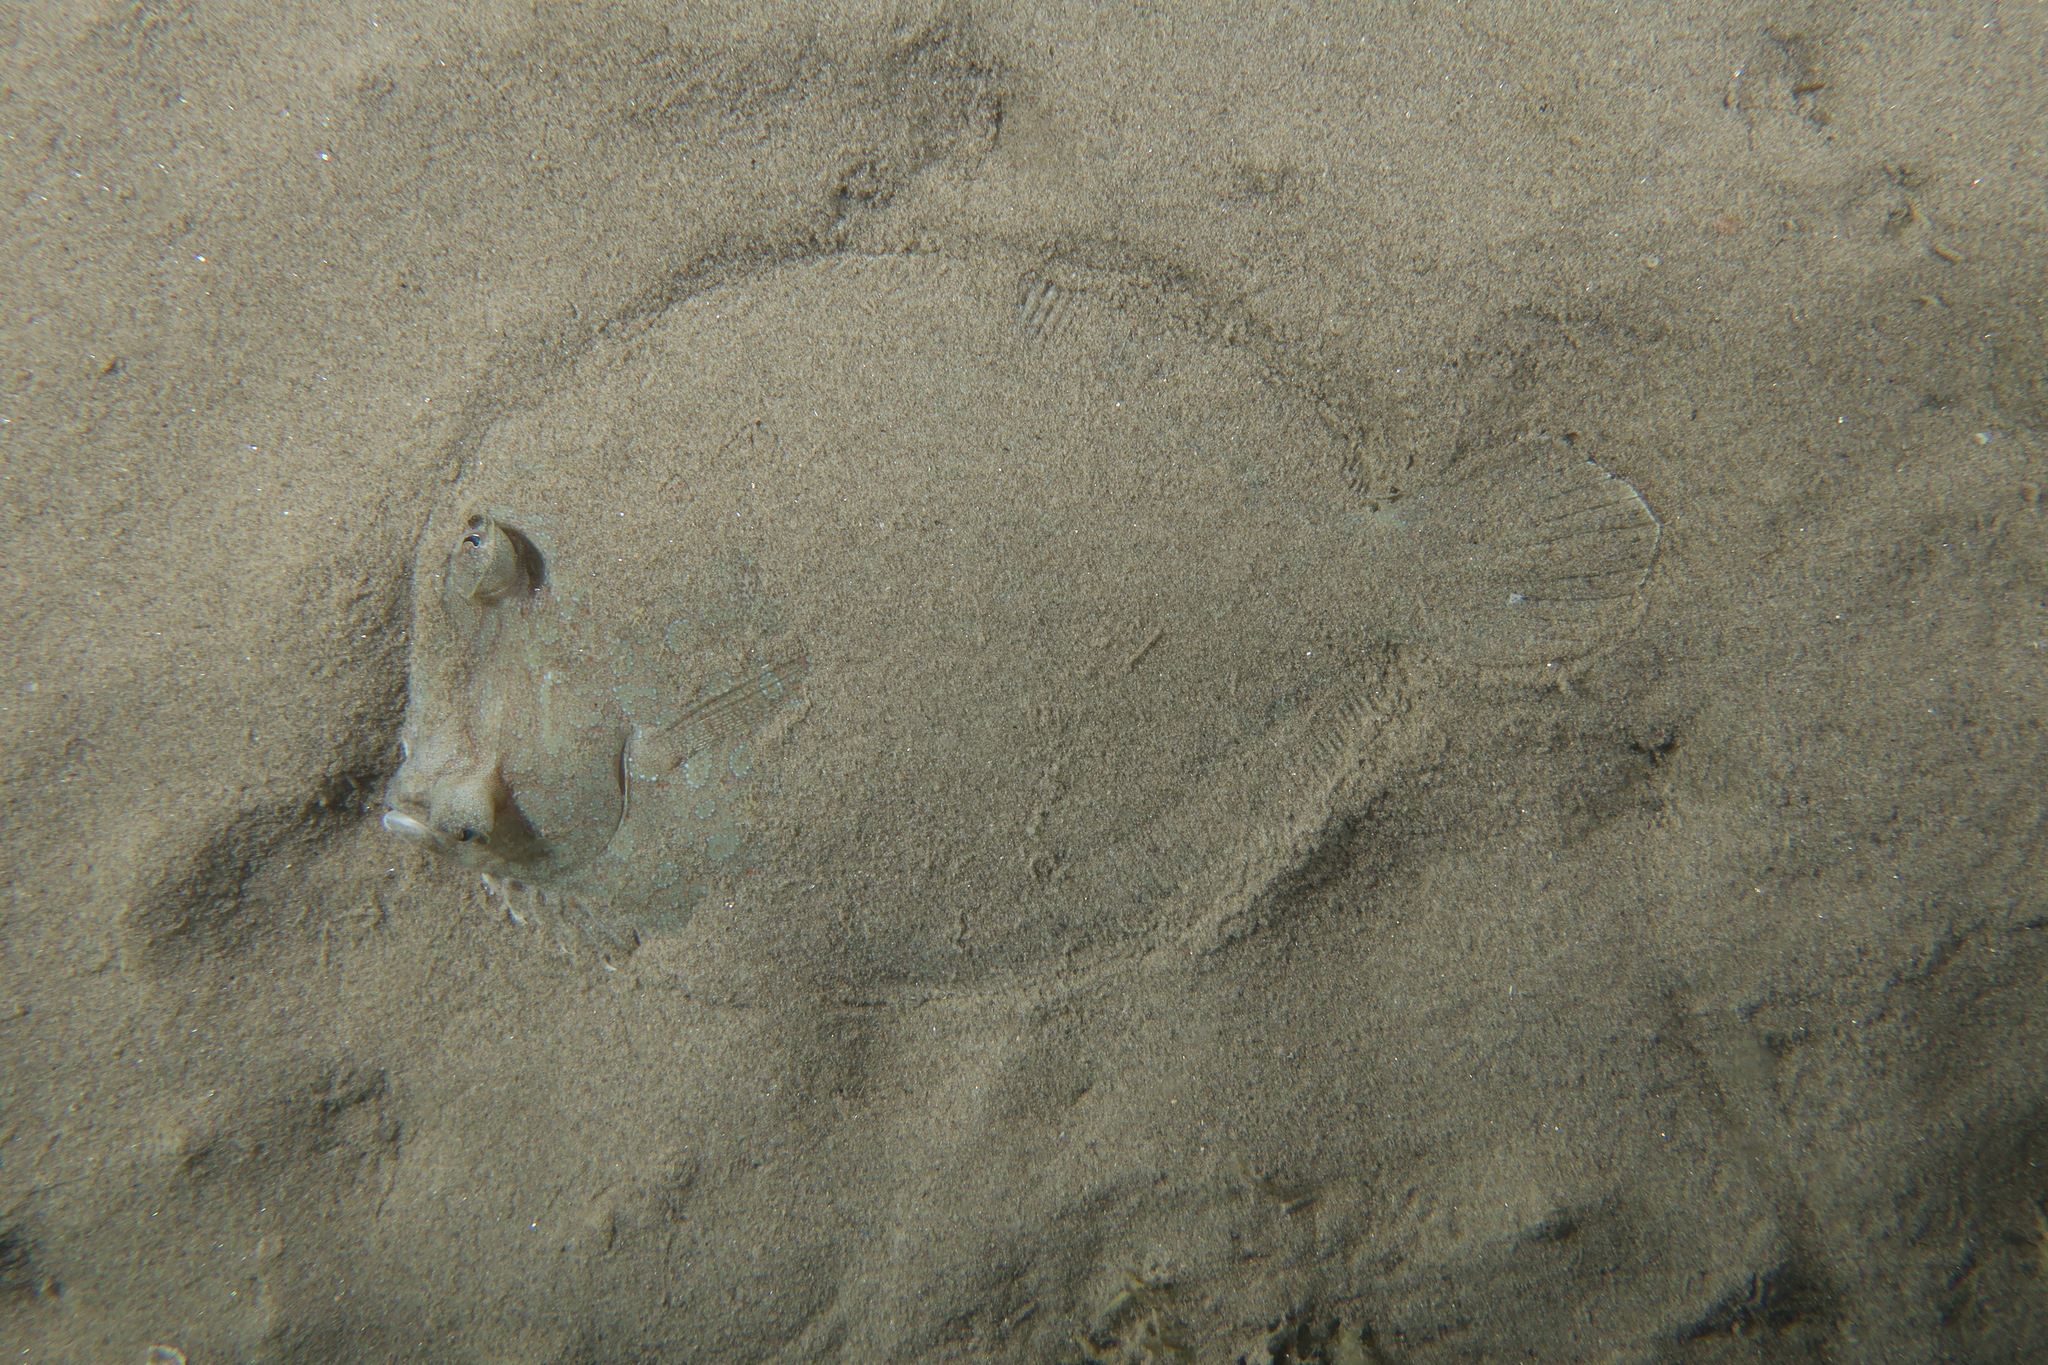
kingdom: Animalia
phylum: Chordata
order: Pleuronectiformes
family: Bothidae
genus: Bothus
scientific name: Bothus podas
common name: Wide-eyed flounder
